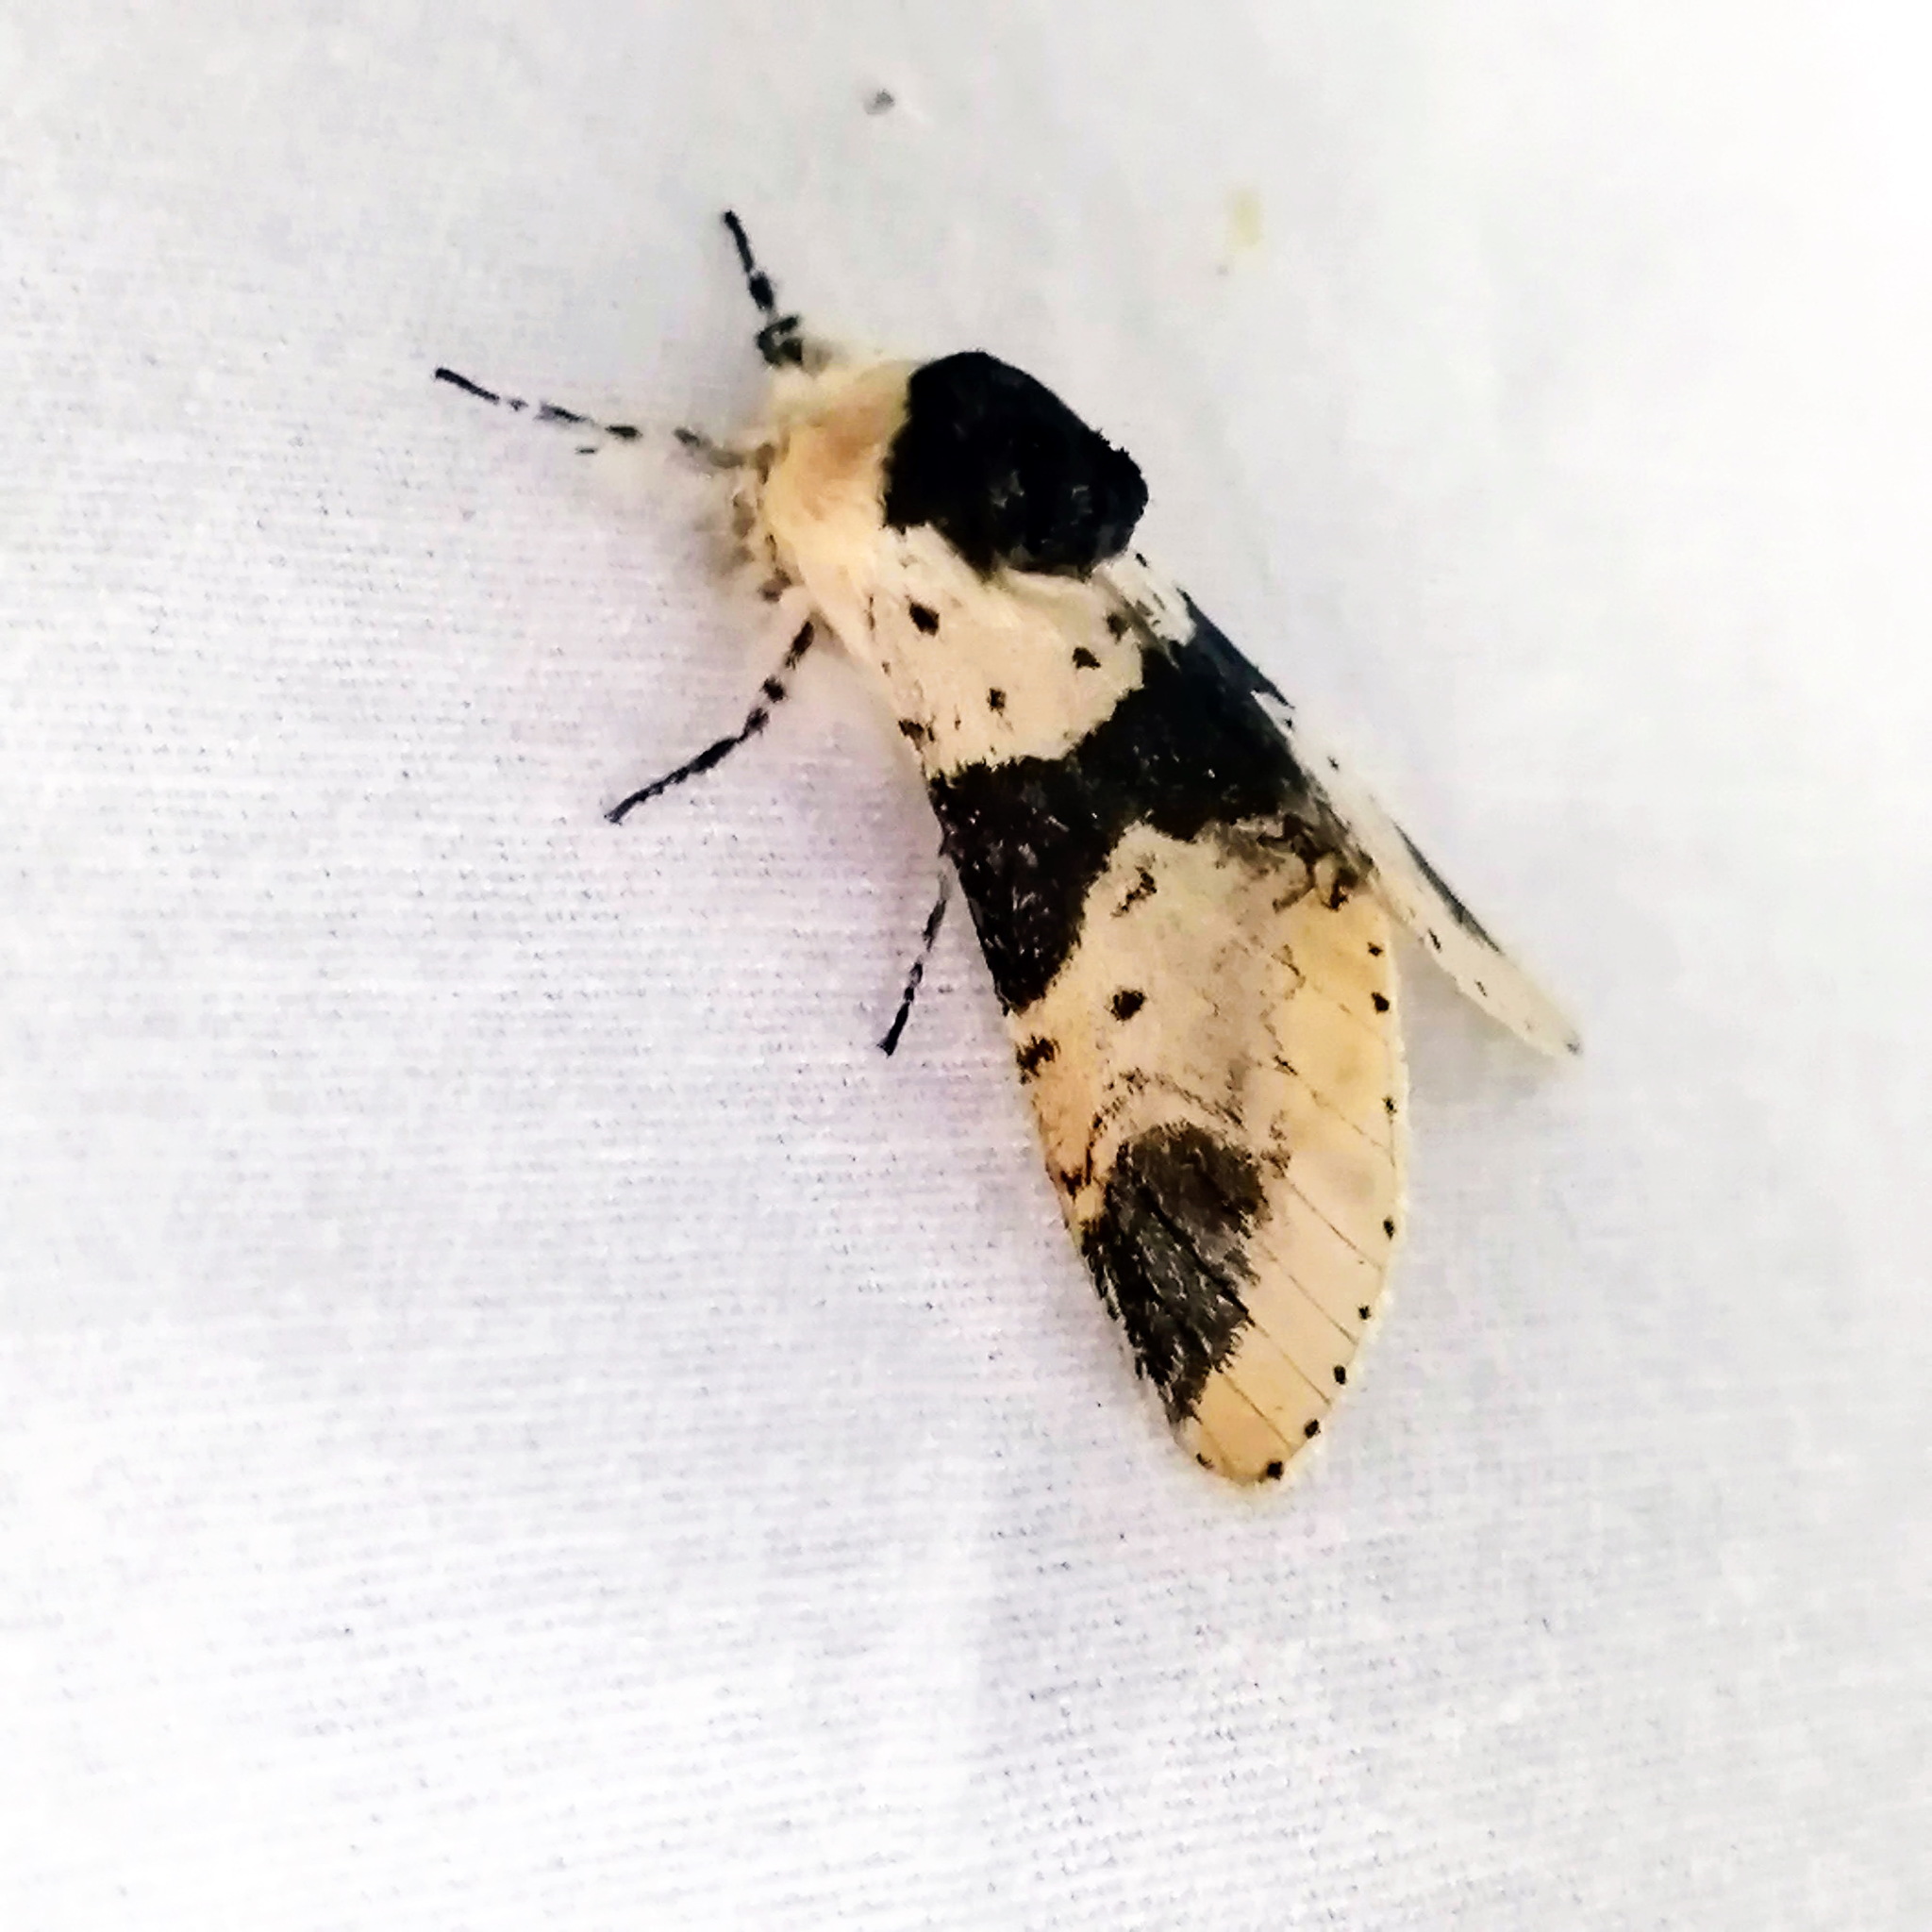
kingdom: Animalia
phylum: Arthropoda
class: Insecta
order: Lepidoptera
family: Notodontidae
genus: Furcula
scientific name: Furcula modesta
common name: Modest furcula moth
